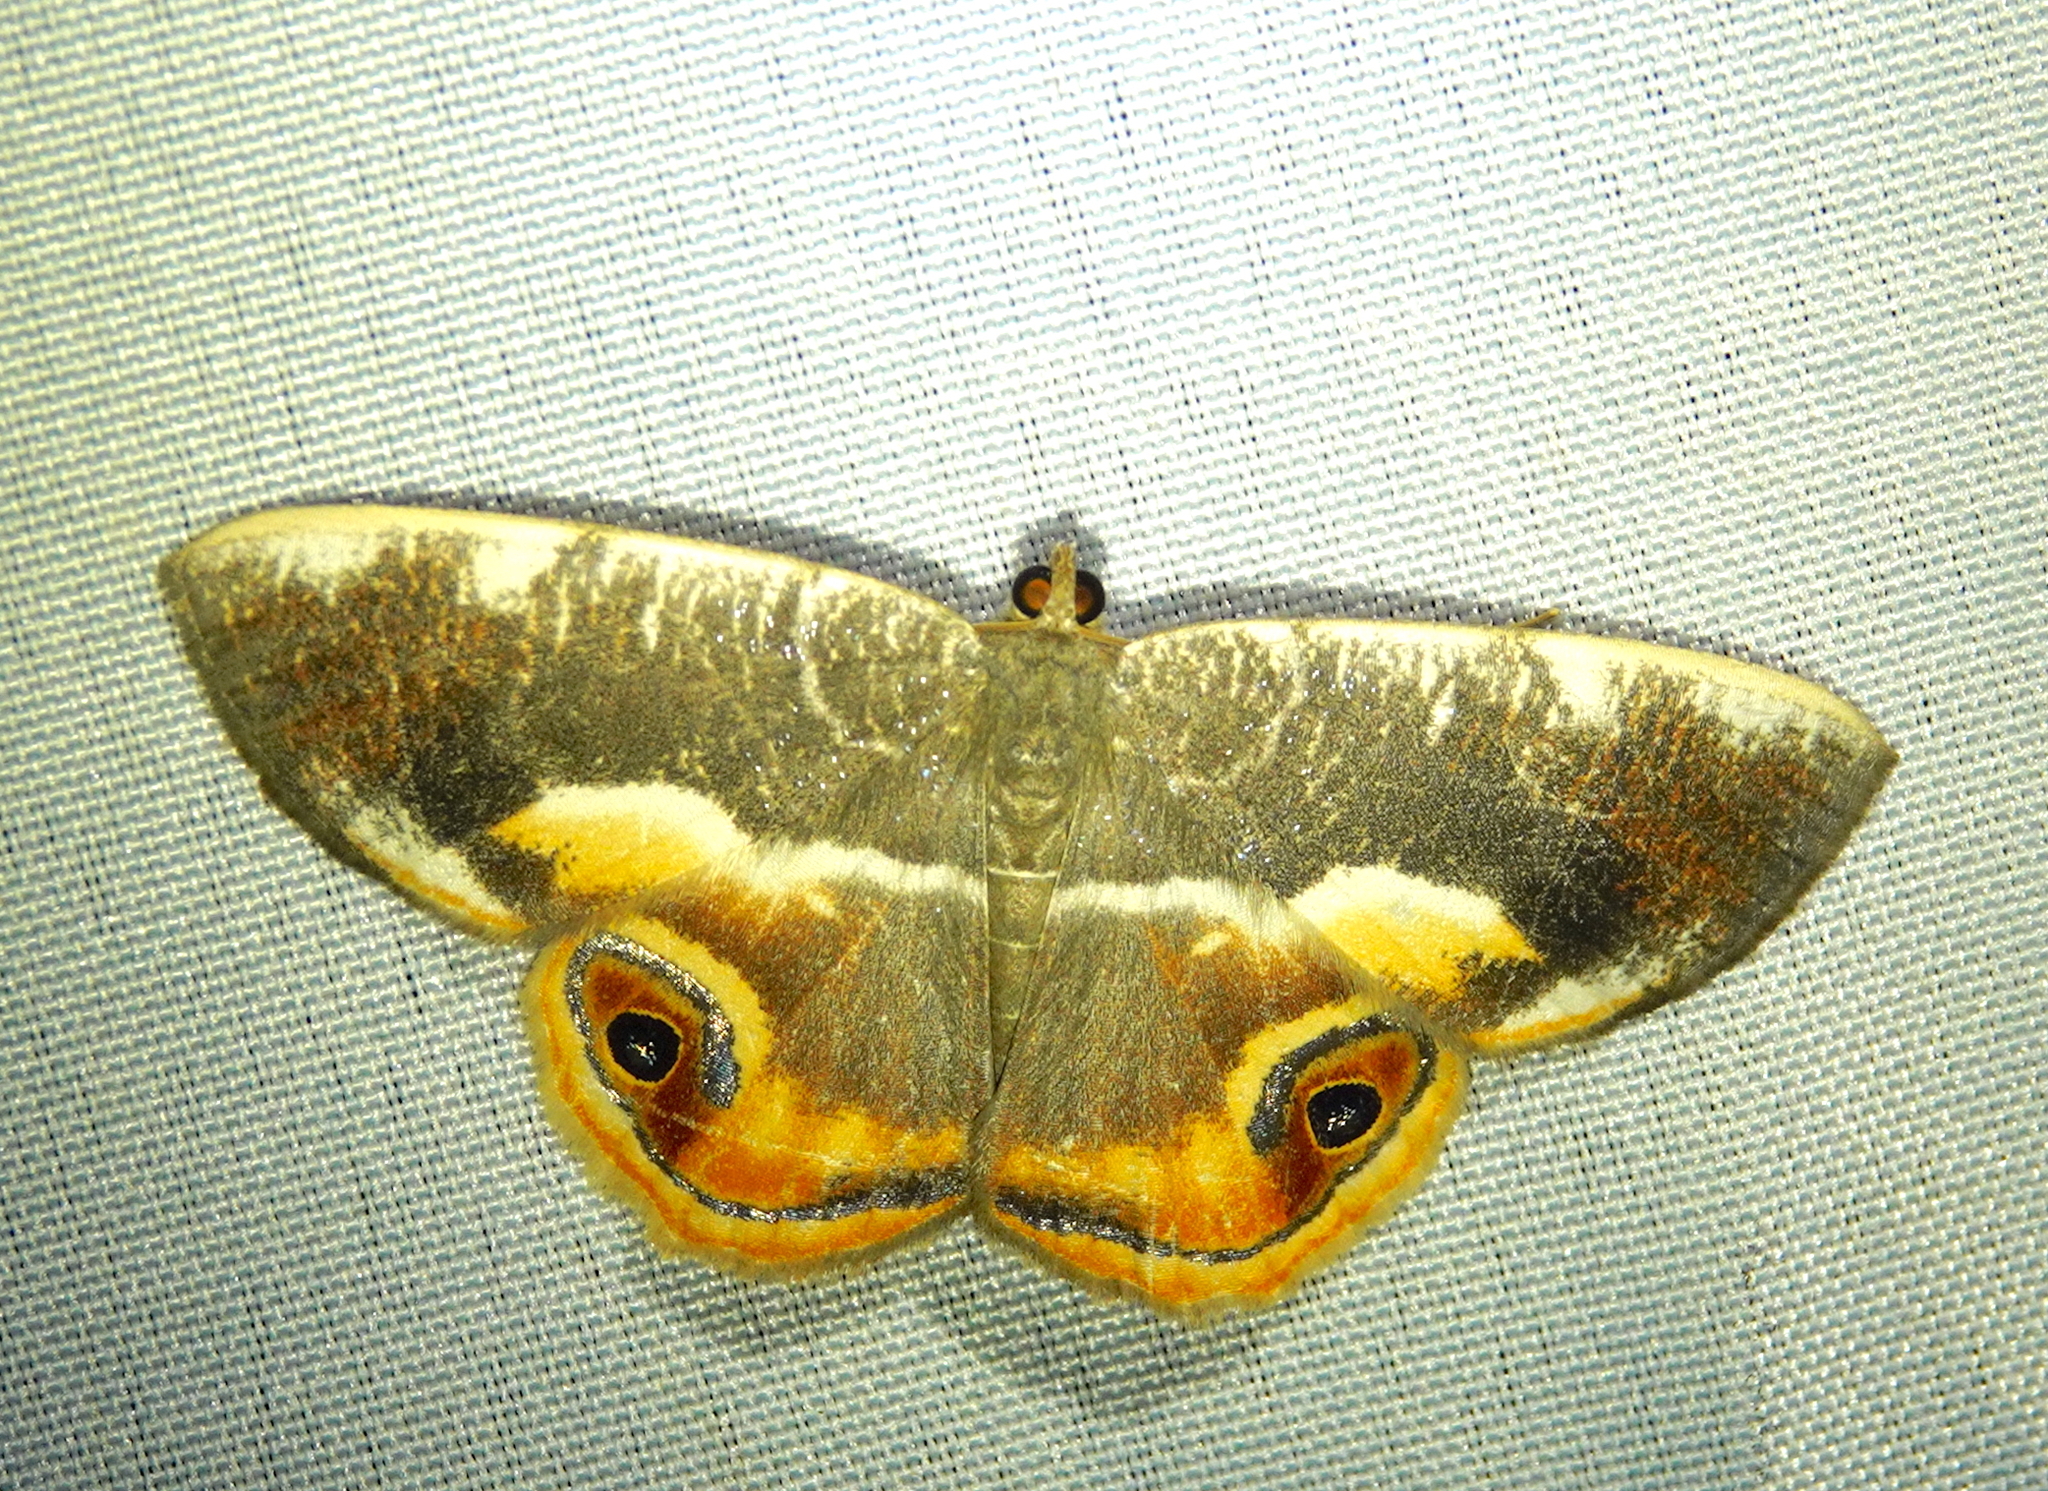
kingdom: Animalia
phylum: Arthropoda
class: Insecta
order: Lepidoptera
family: Geometridae
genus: Opisthoxia
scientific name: Opisthoxia conjuncta
